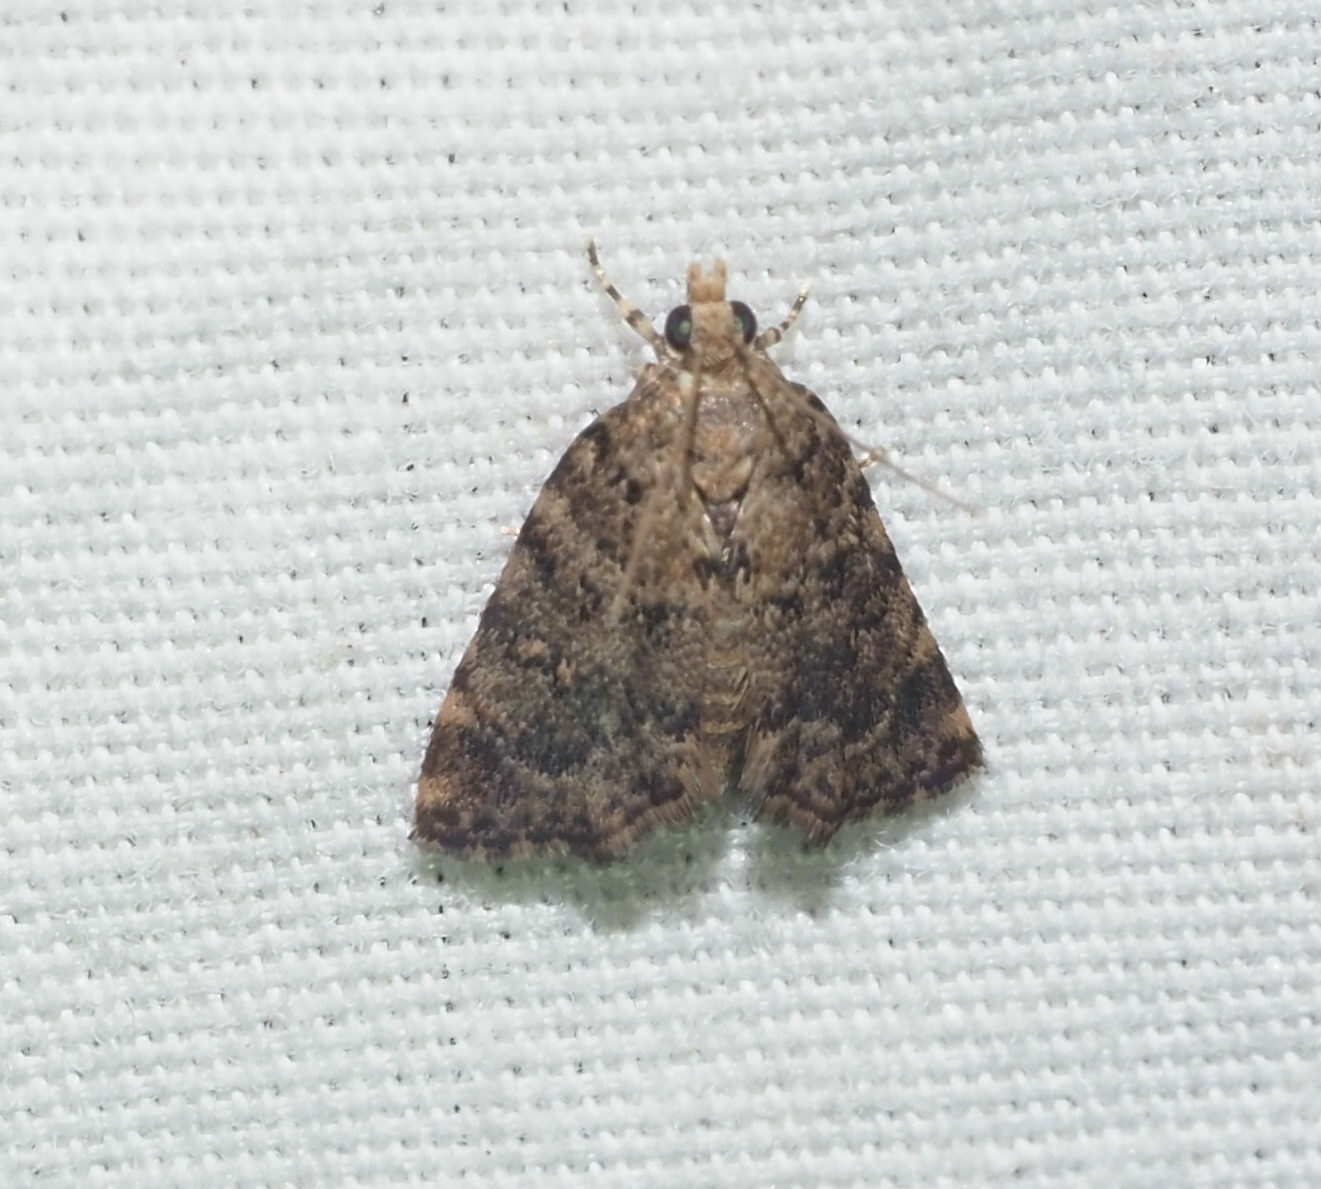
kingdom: Animalia
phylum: Arthropoda
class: Insecta
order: Lepidoptera
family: Crambidae
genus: Mestolobes
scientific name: Mestolobes abnormis
